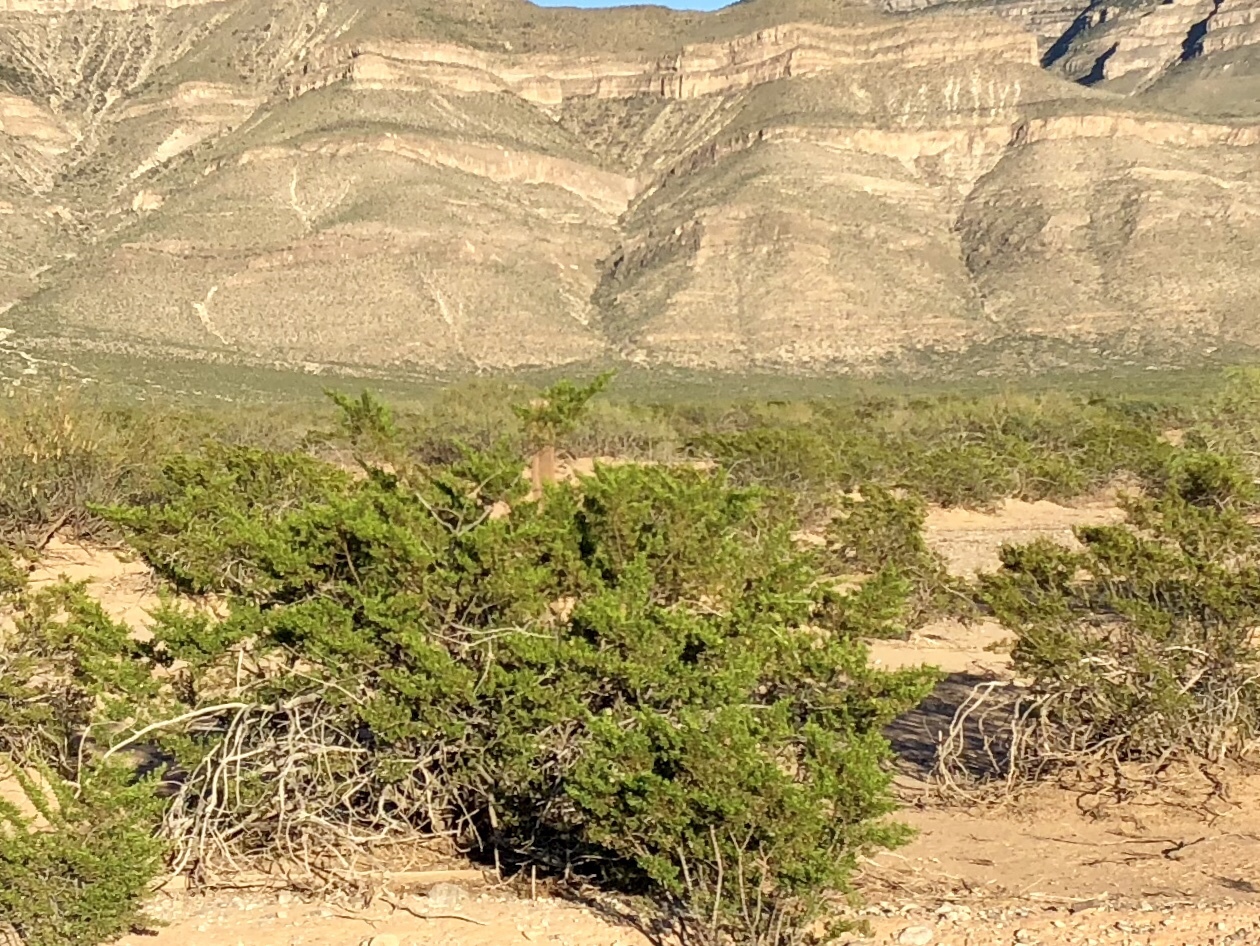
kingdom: Plantae
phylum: Tracheophyta
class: Magnoliopsida
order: Zygophyllales
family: Zygophyllaceae
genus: Larrea
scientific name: Larrea tridentata
